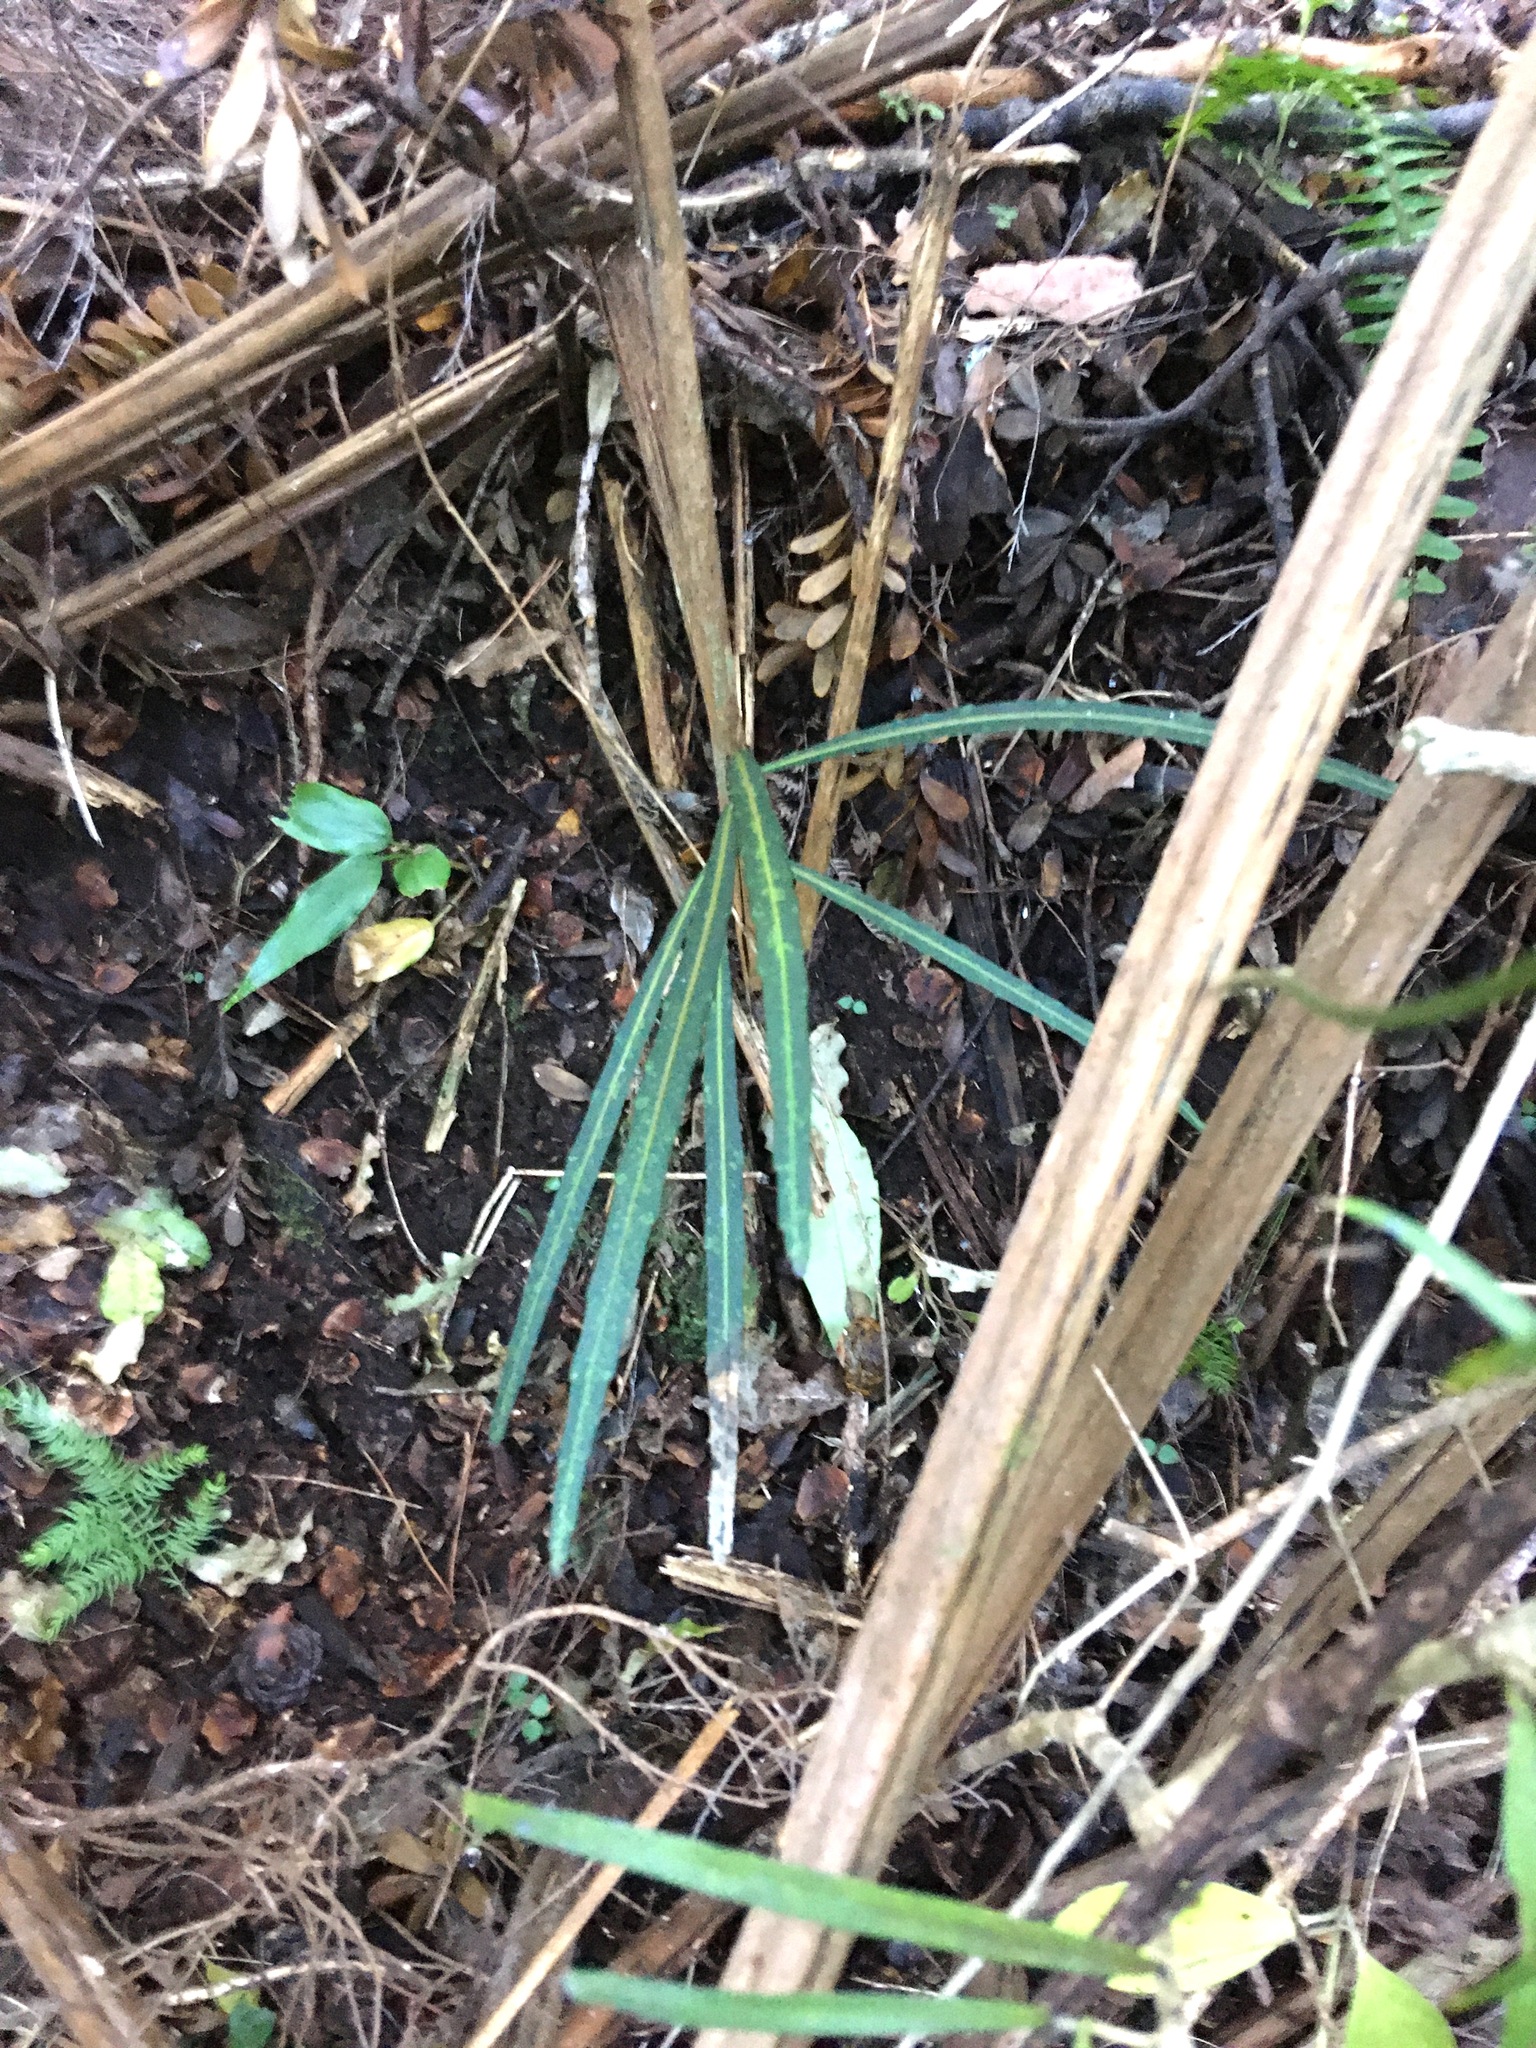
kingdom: Plantae
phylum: Tracheophyta
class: Magnoliopsida
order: Apiales
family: Araliaceae
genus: Pseudopanax
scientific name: Pseudopanax crassifolius
